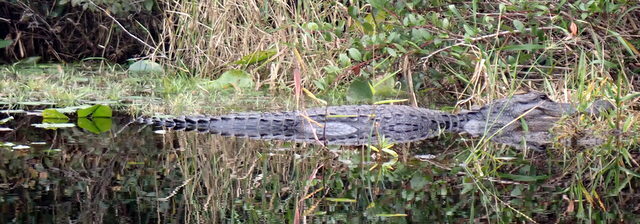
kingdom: Animalia
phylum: Chordata
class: Crocodylia
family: Alligatoridae
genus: Alligator
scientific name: Alligator mississippiensis
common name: American alligator
